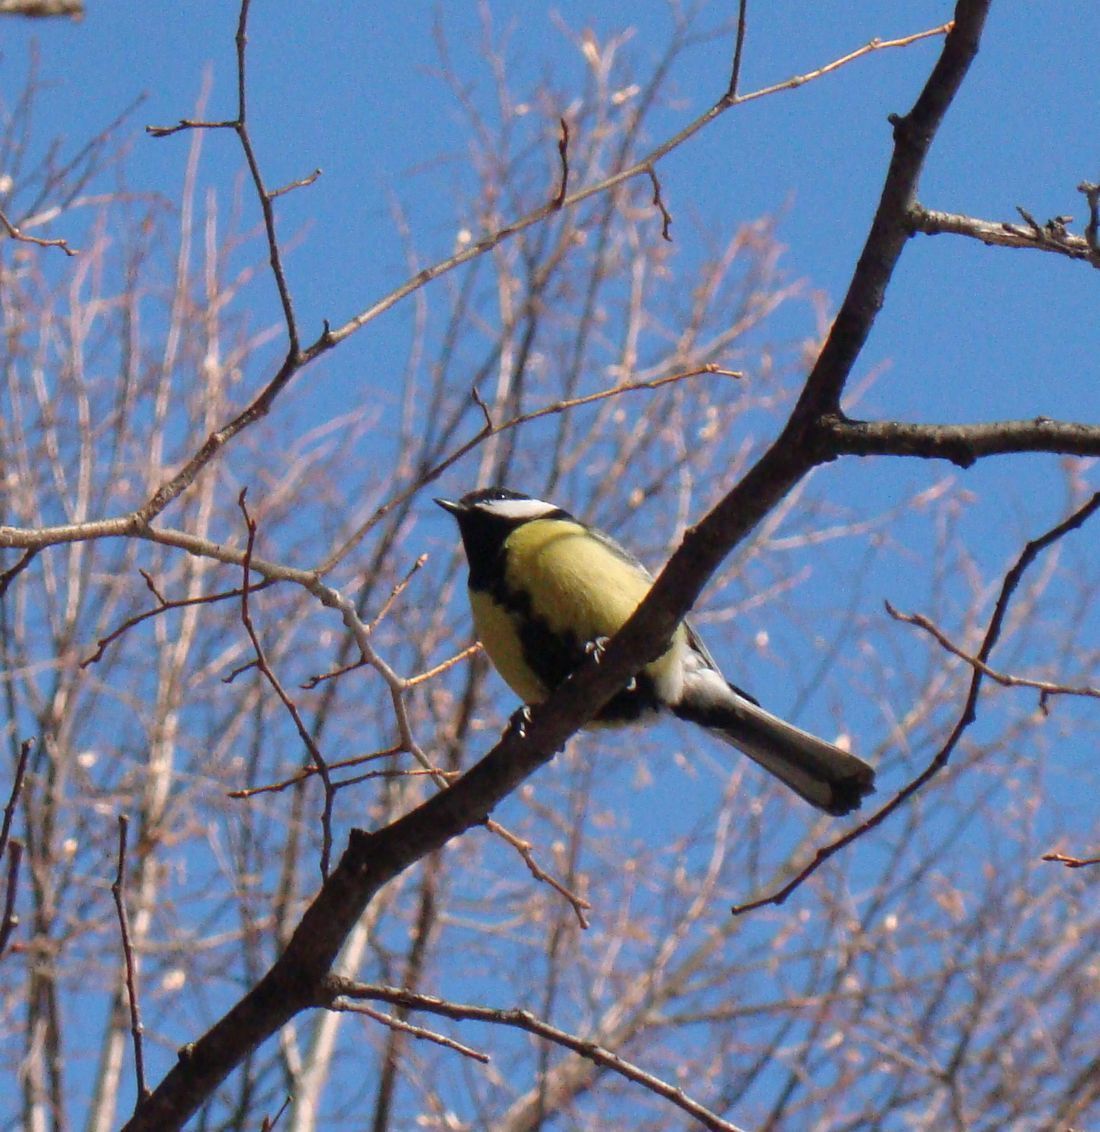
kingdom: Animalia
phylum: Chordata
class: Aves
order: Passeriformes
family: Paridae
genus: Parus
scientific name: Parus major
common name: Great tit
